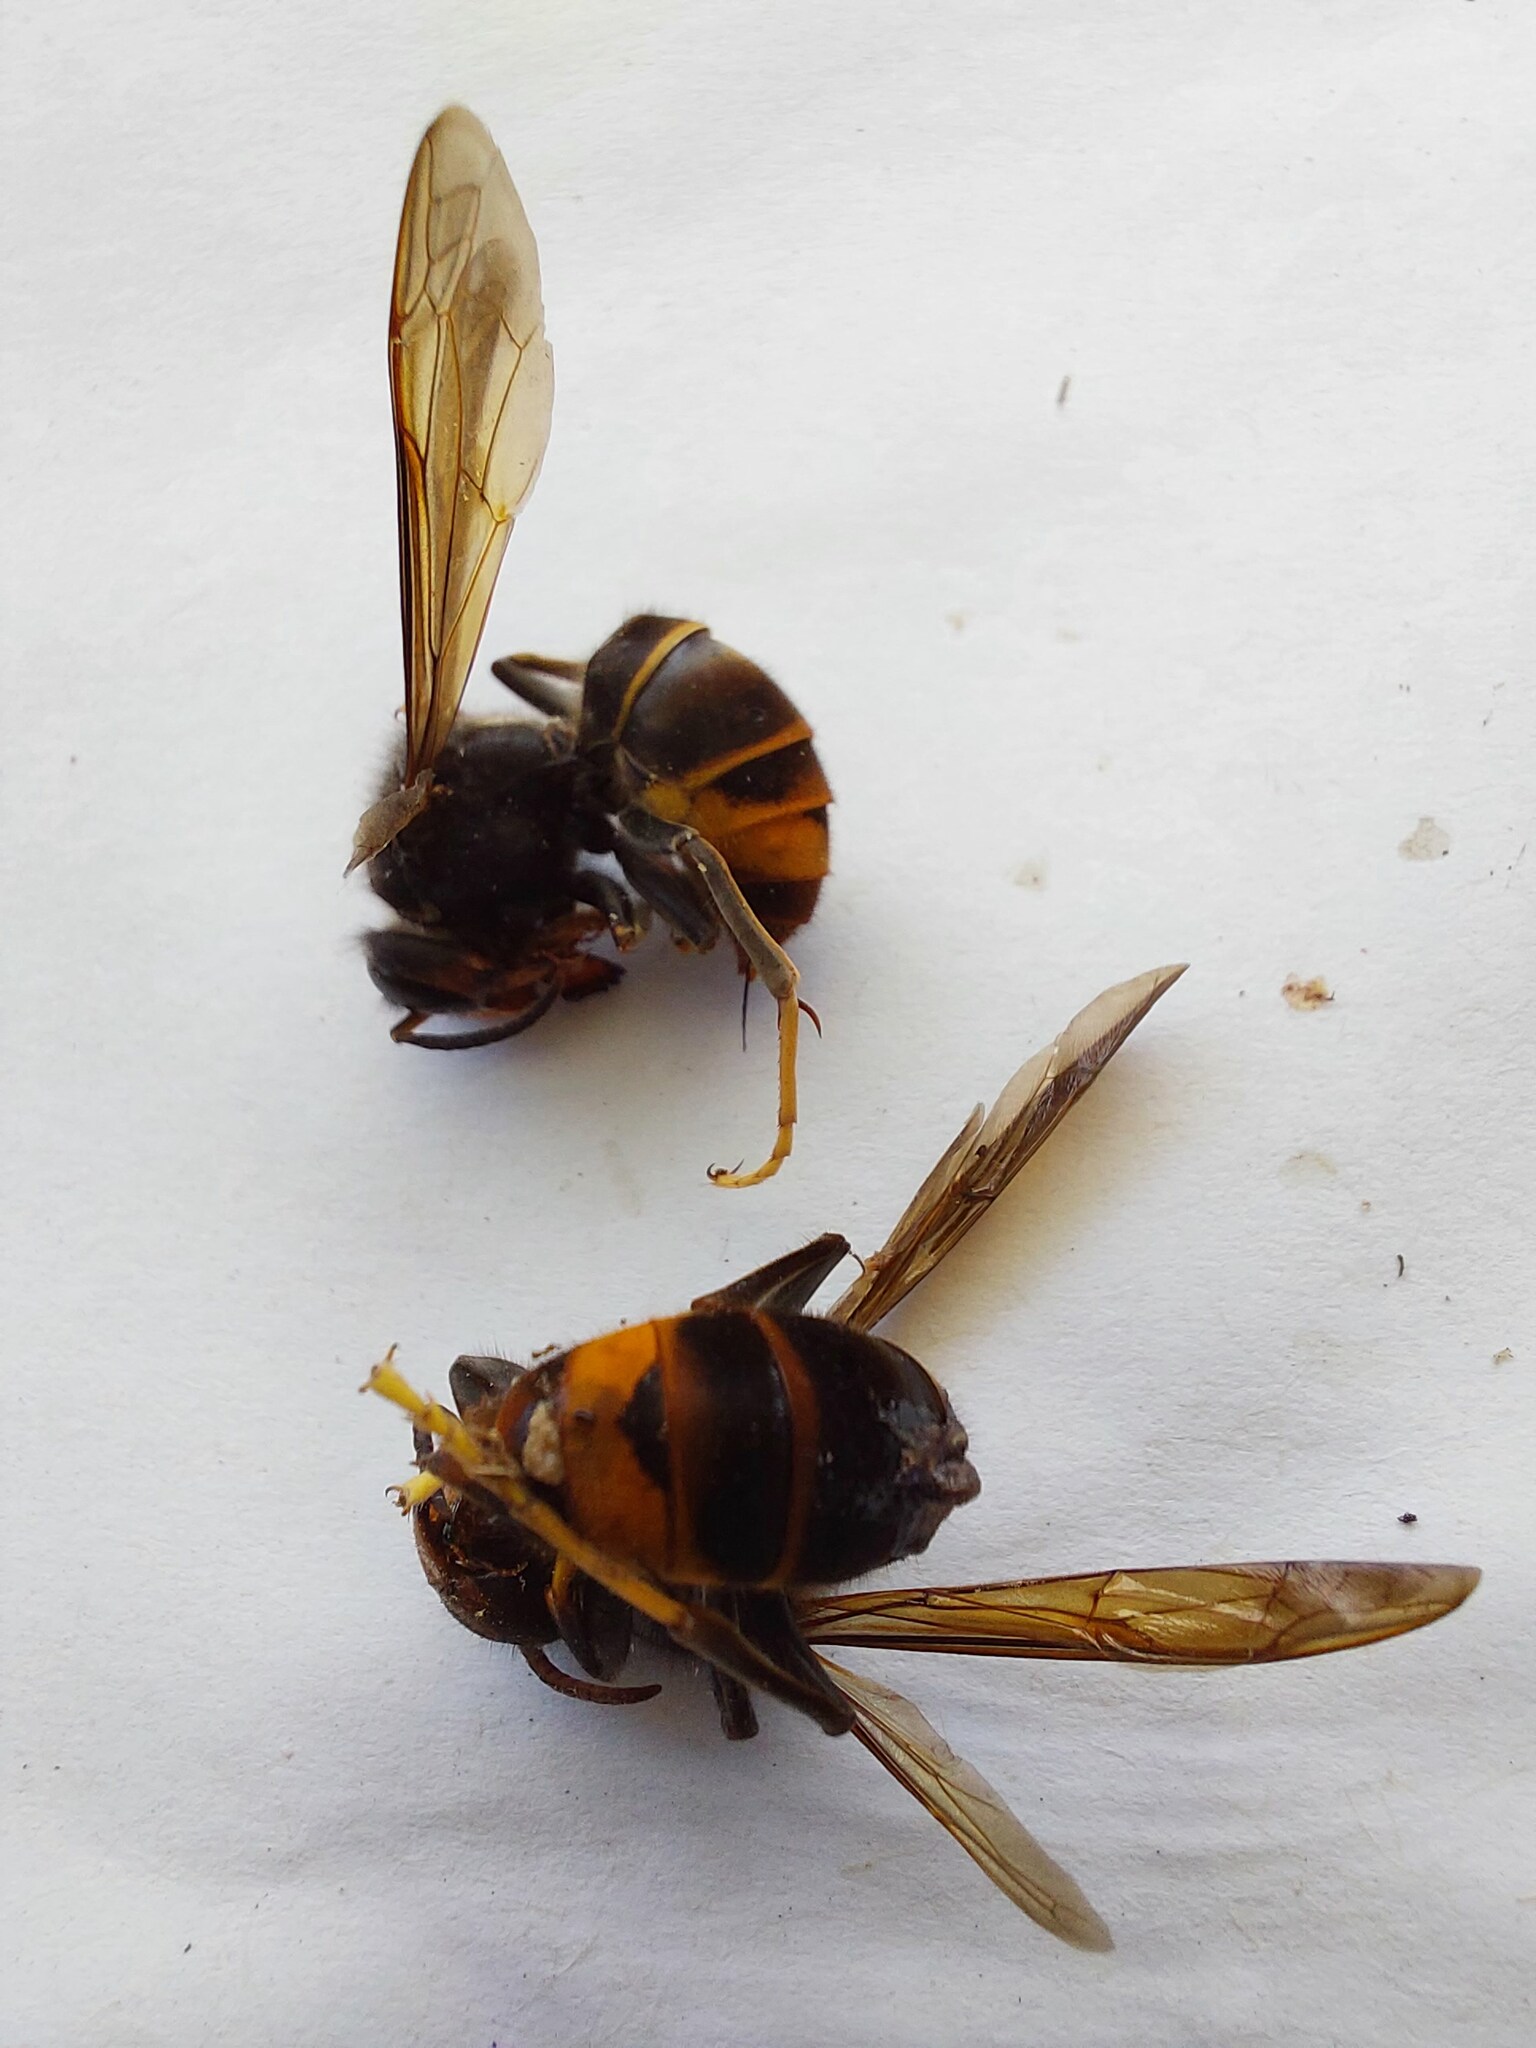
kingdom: Animalia
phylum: Arthropoda
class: Insecta
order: Hymenoptera
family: Vespidae
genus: Vespa
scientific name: Vespa velutina
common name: Asian hornet
